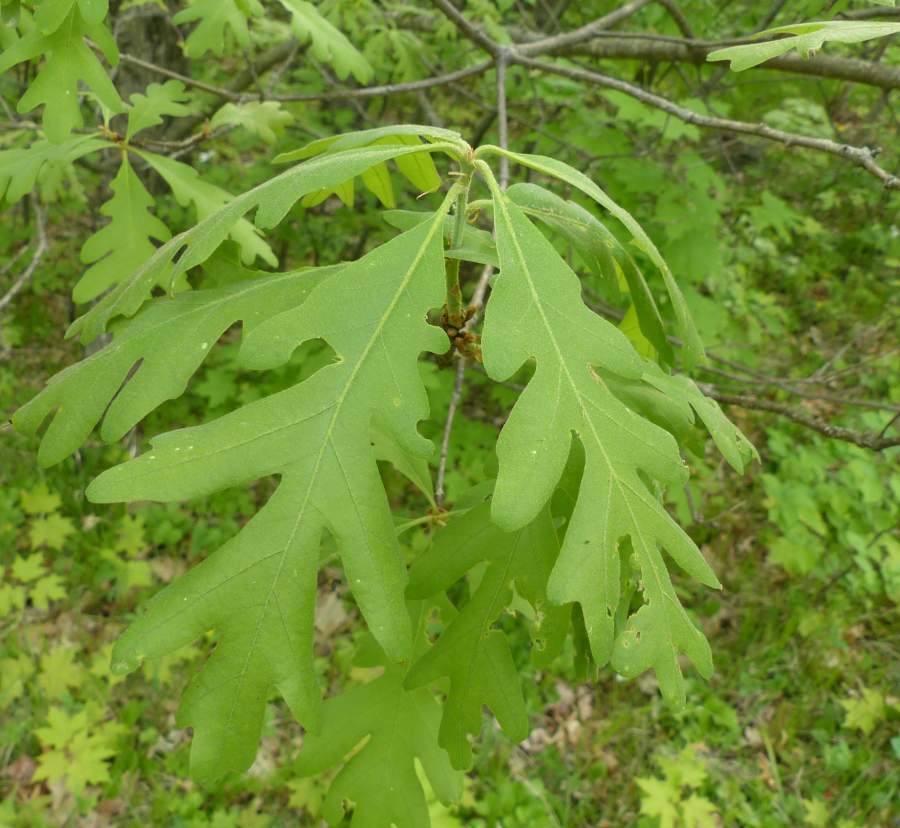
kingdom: Plantae
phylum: Tracheophyta
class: Magnoliopsida
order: Fagales
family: Fagaceae
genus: Quercus
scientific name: Quercus alba
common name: White oak
